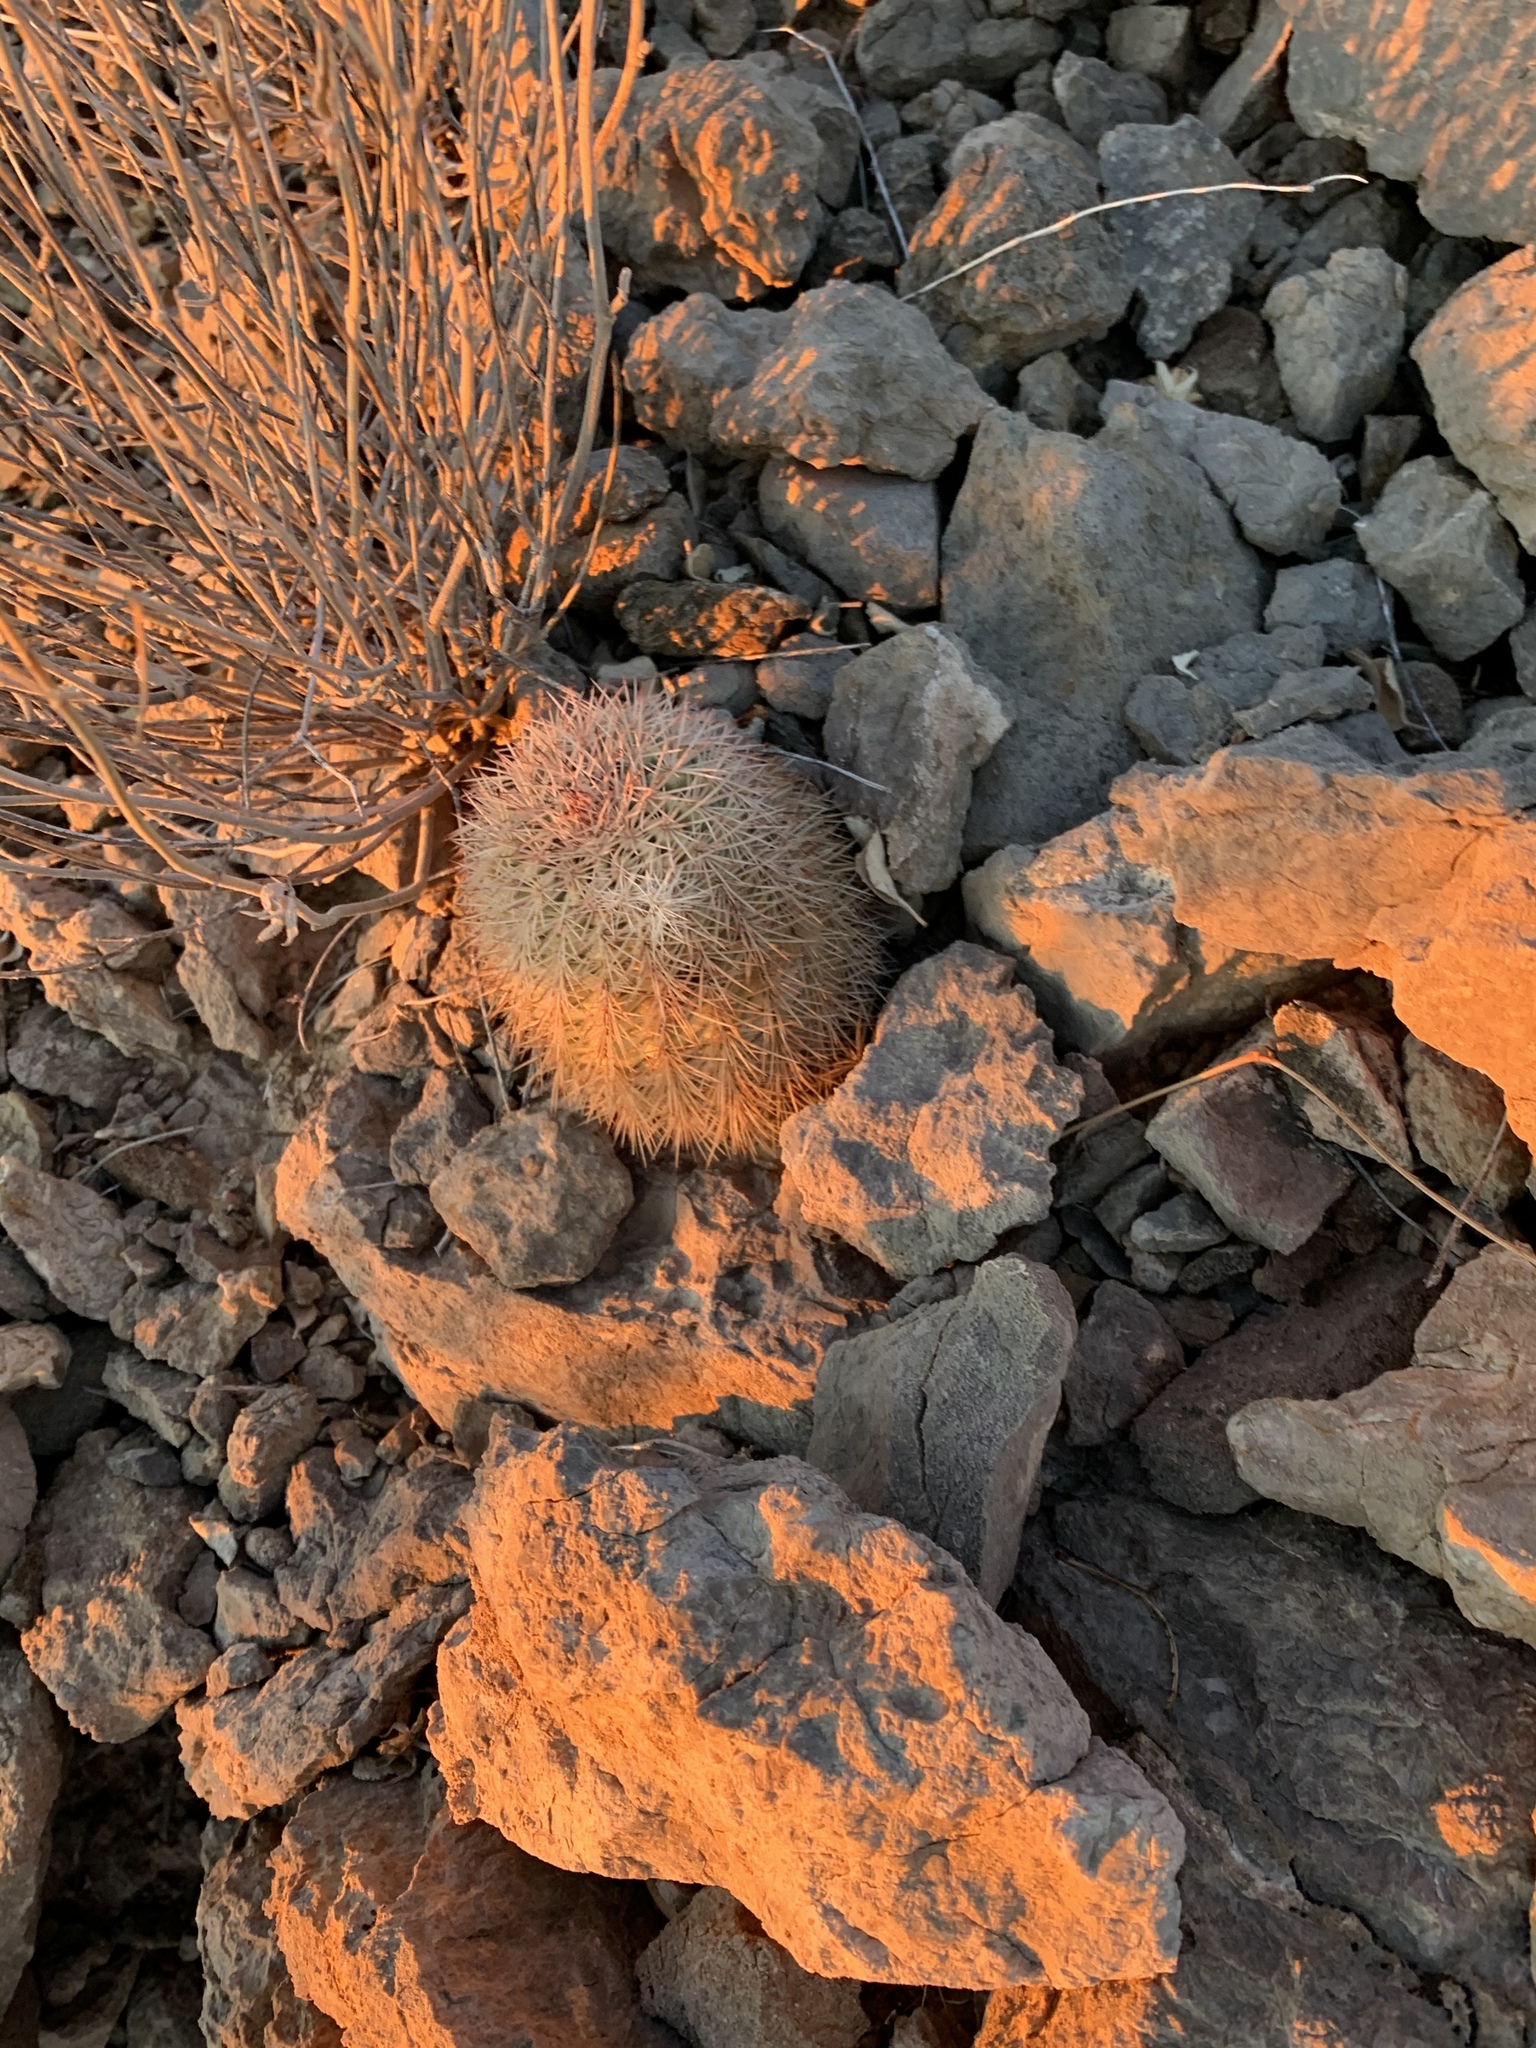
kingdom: Plantae
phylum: Tracheophyta
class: Magnoliopsida
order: Caryophyllales
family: Cactaceae
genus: Echinocereus
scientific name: Echinocereus dasyacanthus
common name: Spiny hedgehog cactus
